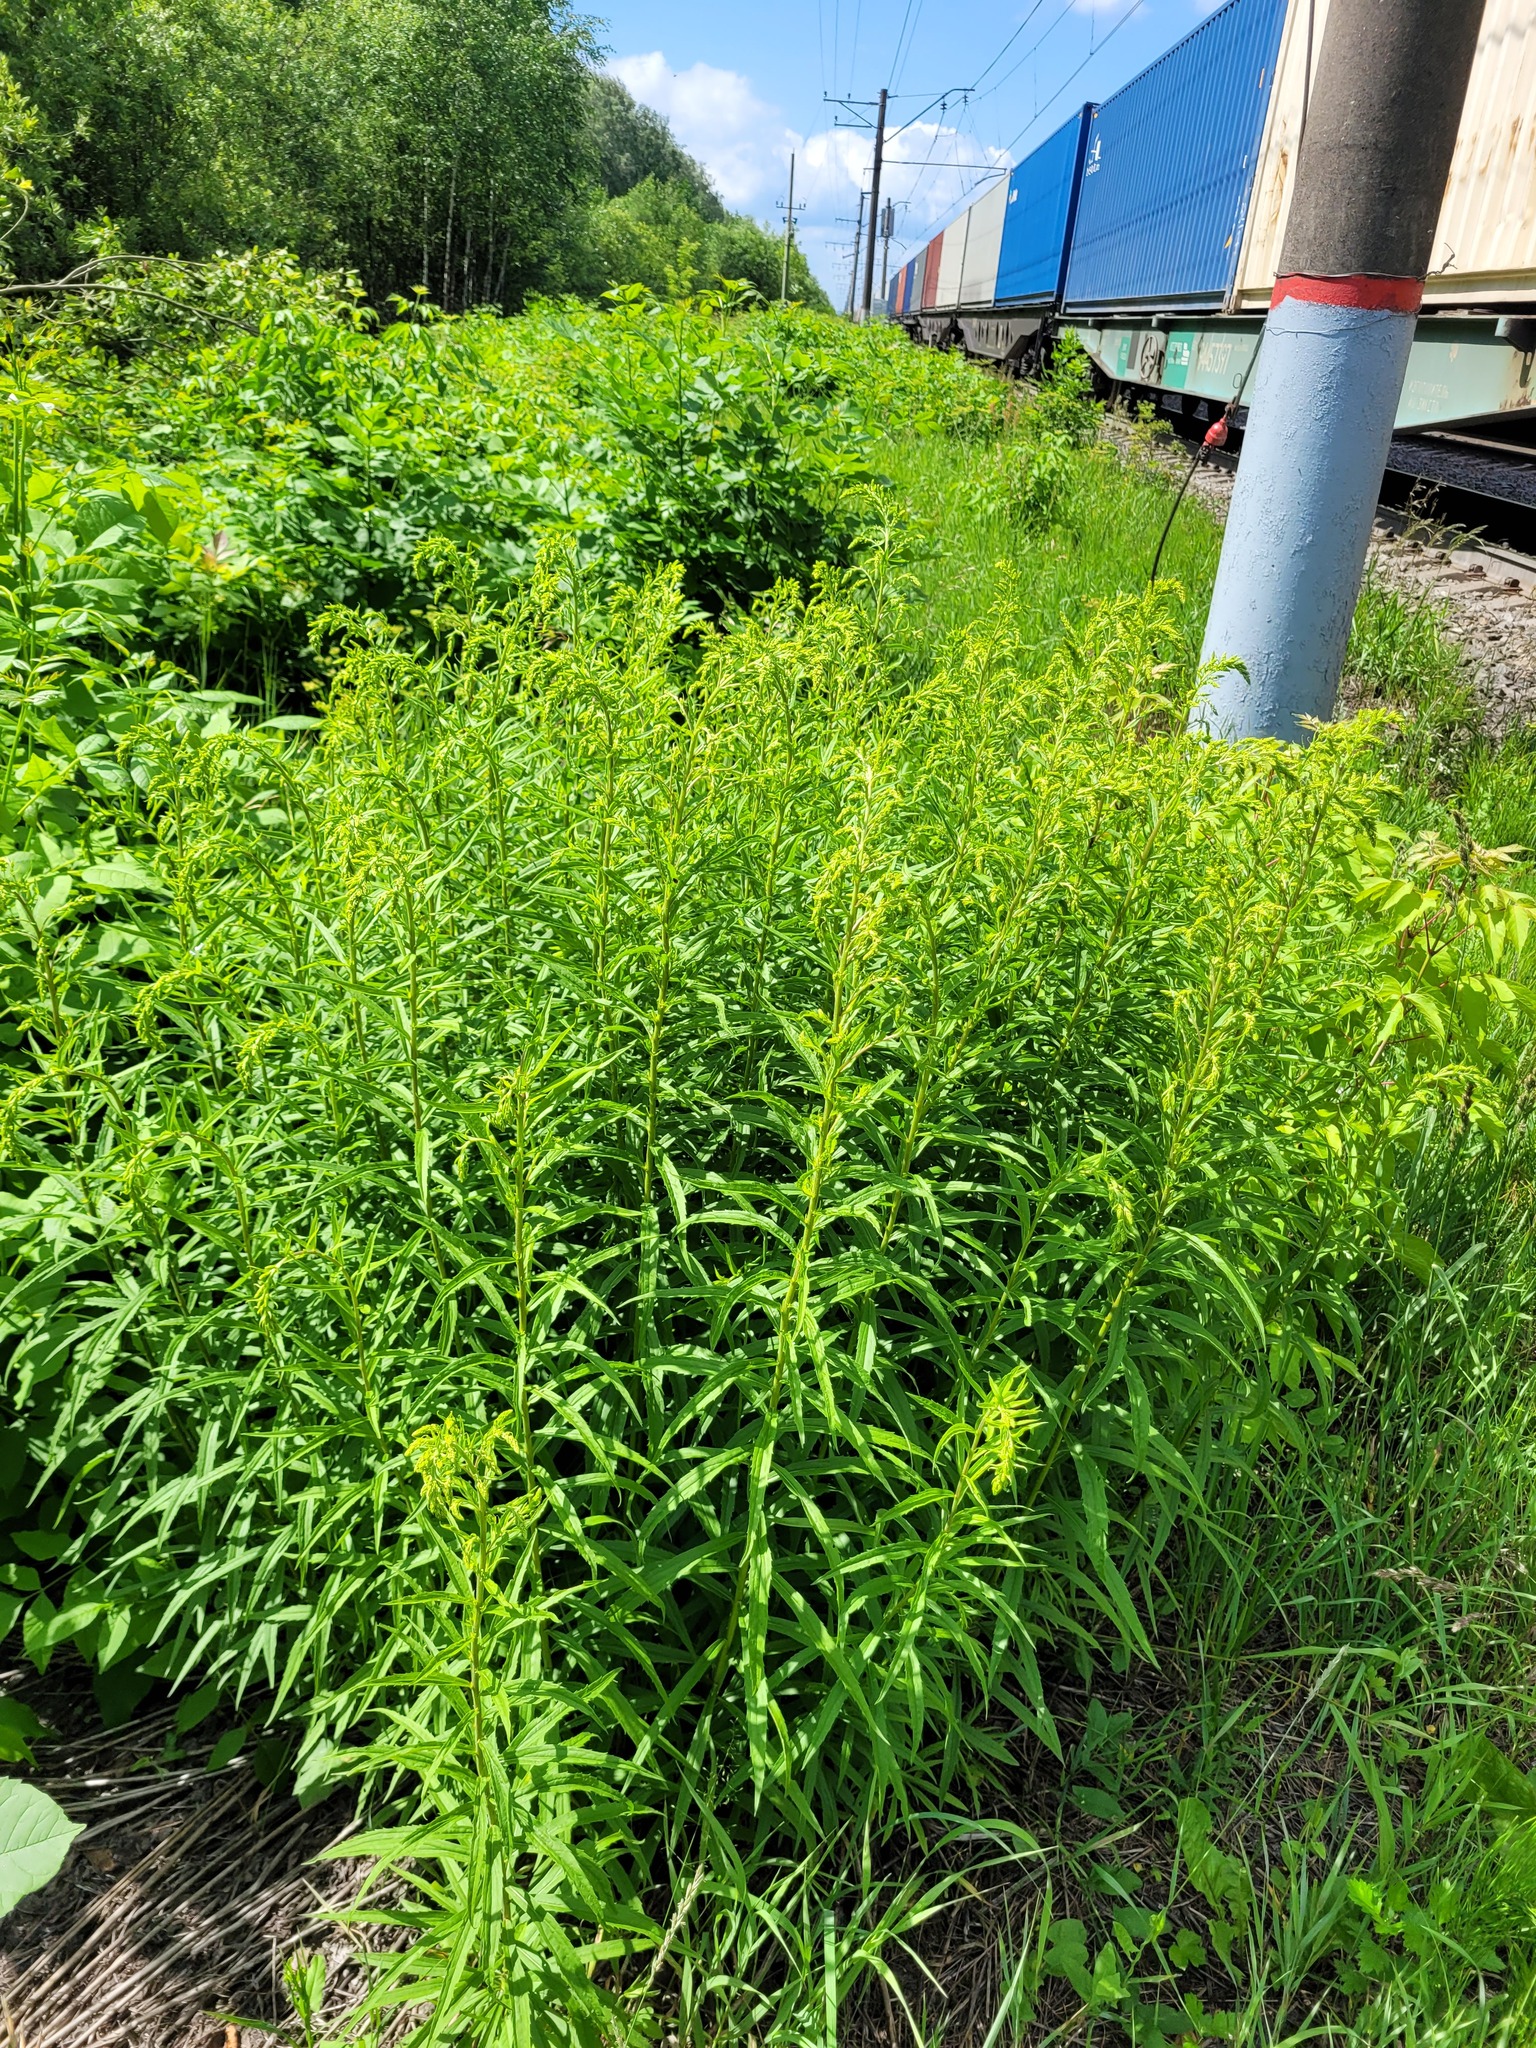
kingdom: Plantae
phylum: Tracheophyta
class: Magnoliopsida
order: Asterales
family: Asteraceae
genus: Solidago
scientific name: Solidago canadensis
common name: Canada goldenrod
